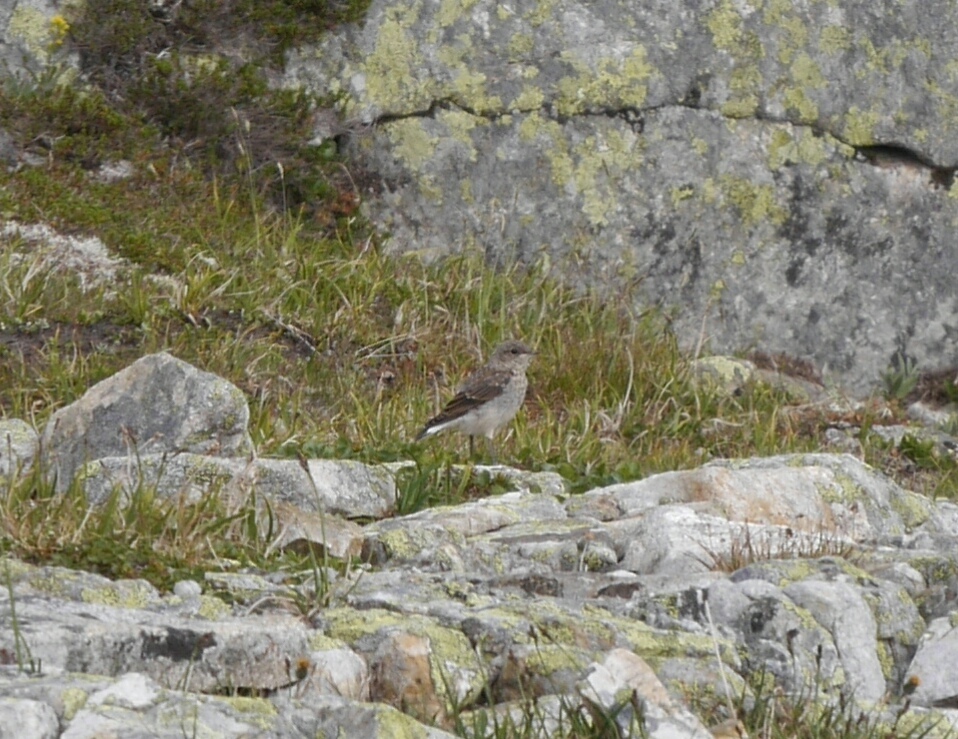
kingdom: Animalia
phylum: Chordata
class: Aves
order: Passeriformes
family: Muscicapidae
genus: Oenanthe
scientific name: Oenanthe oenanthe
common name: Northern wheatear
